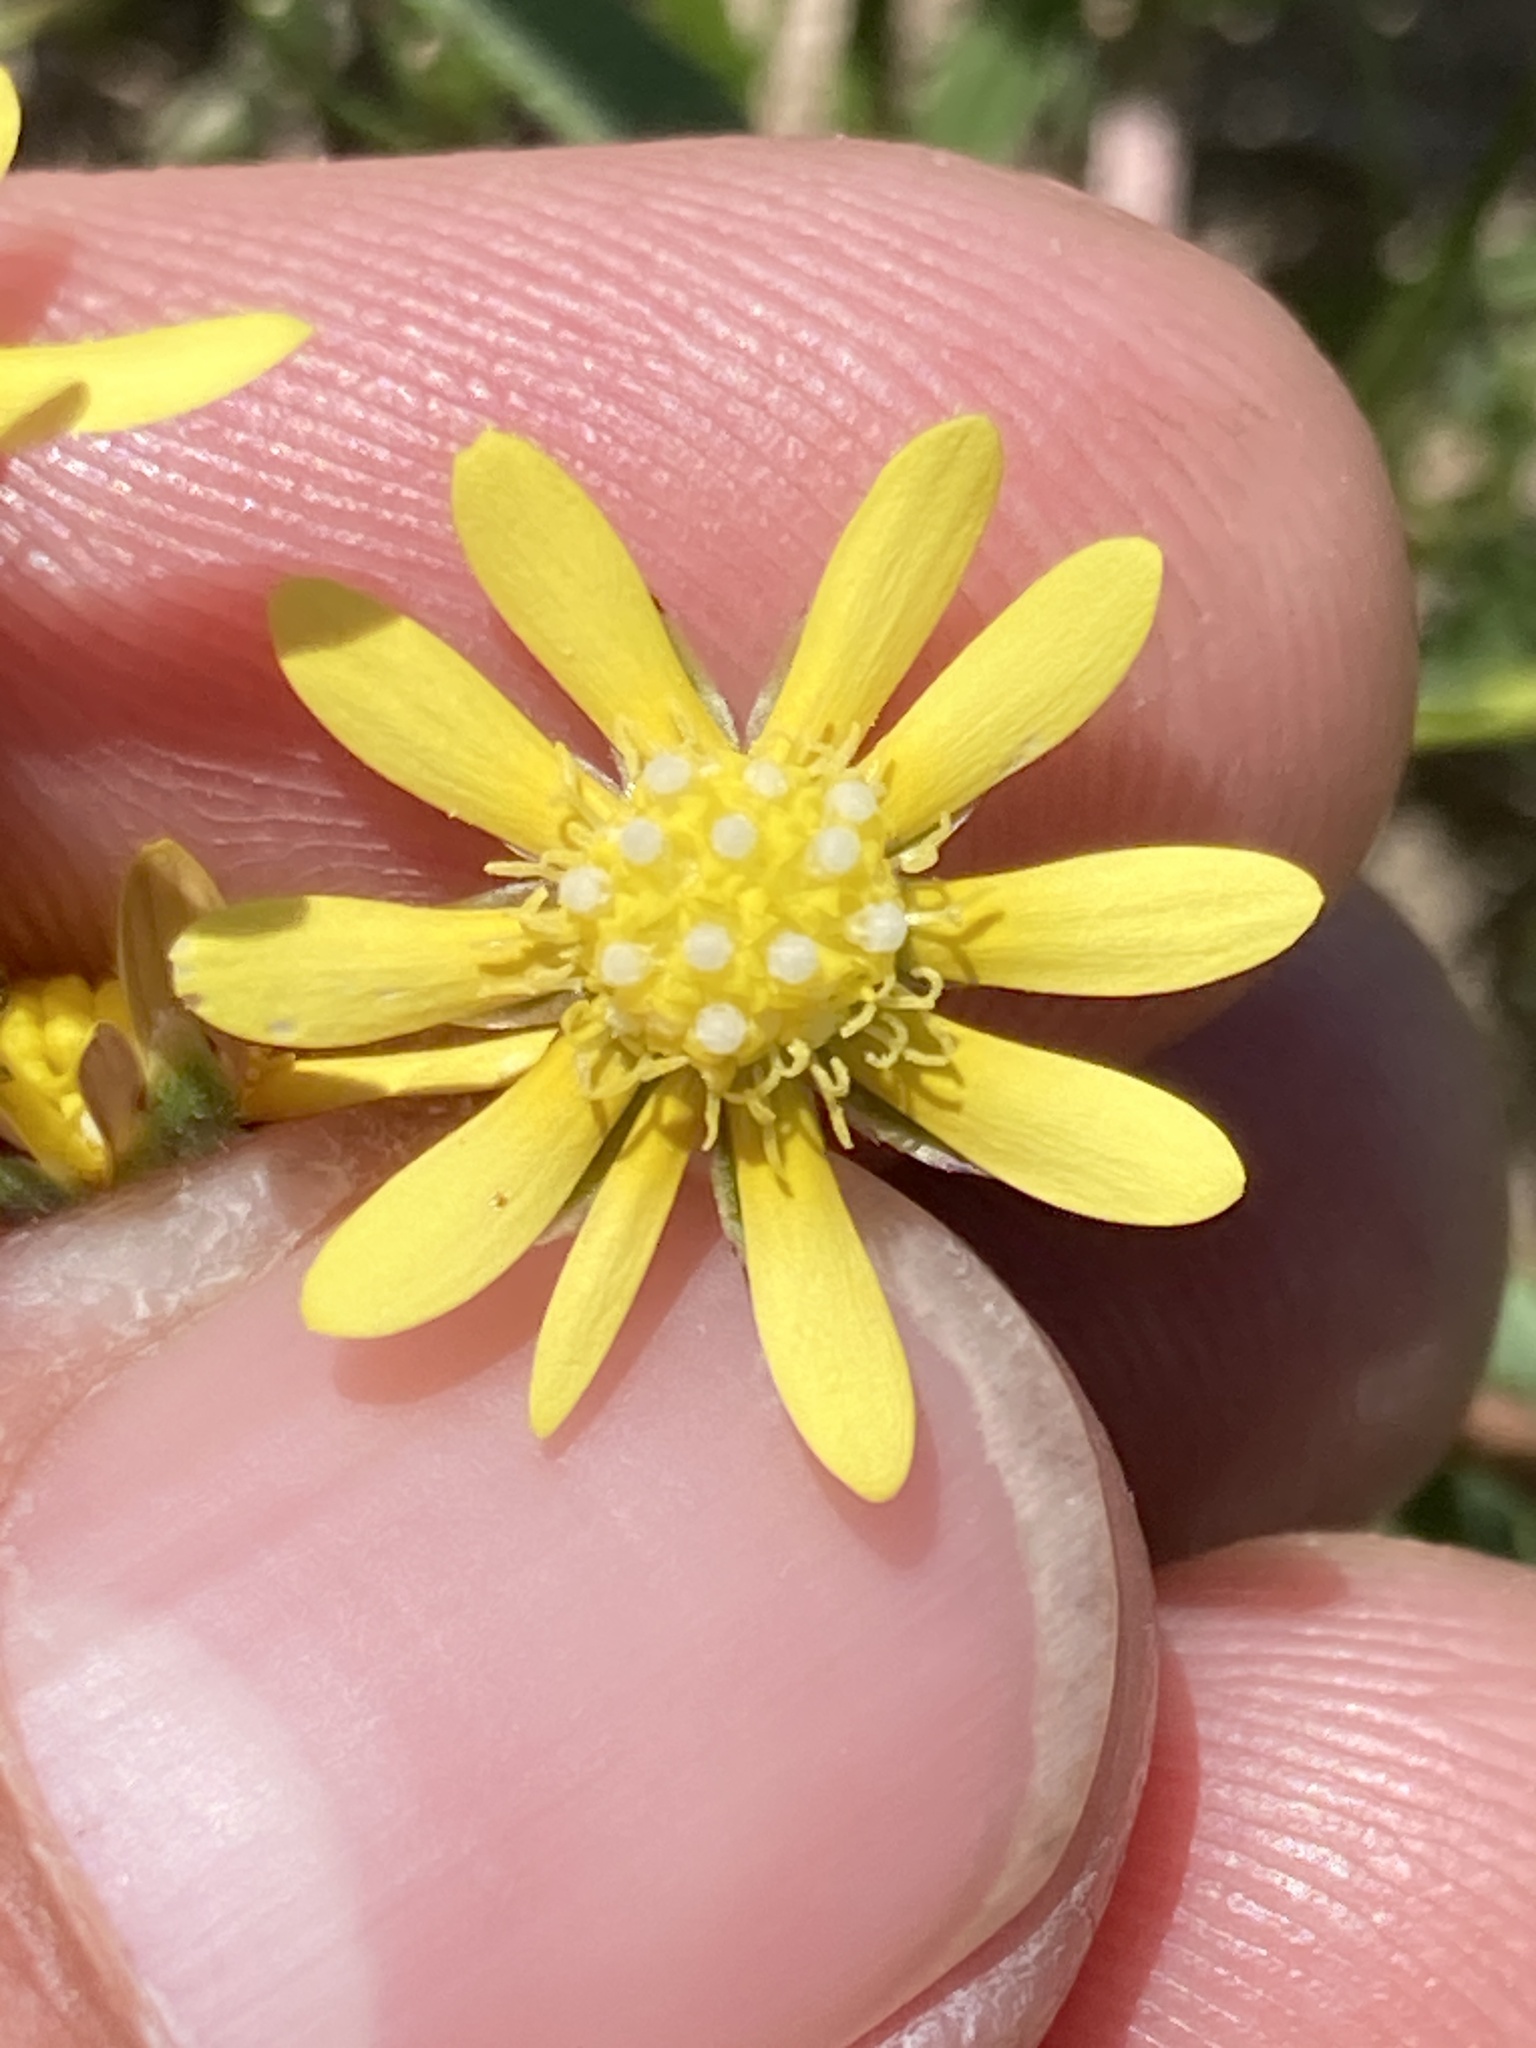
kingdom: Plantae
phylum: Tracheophyta
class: Magnoliopsida
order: Asterales
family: Asteraceae
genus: Blennosperma
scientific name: Blennosperma nanum
